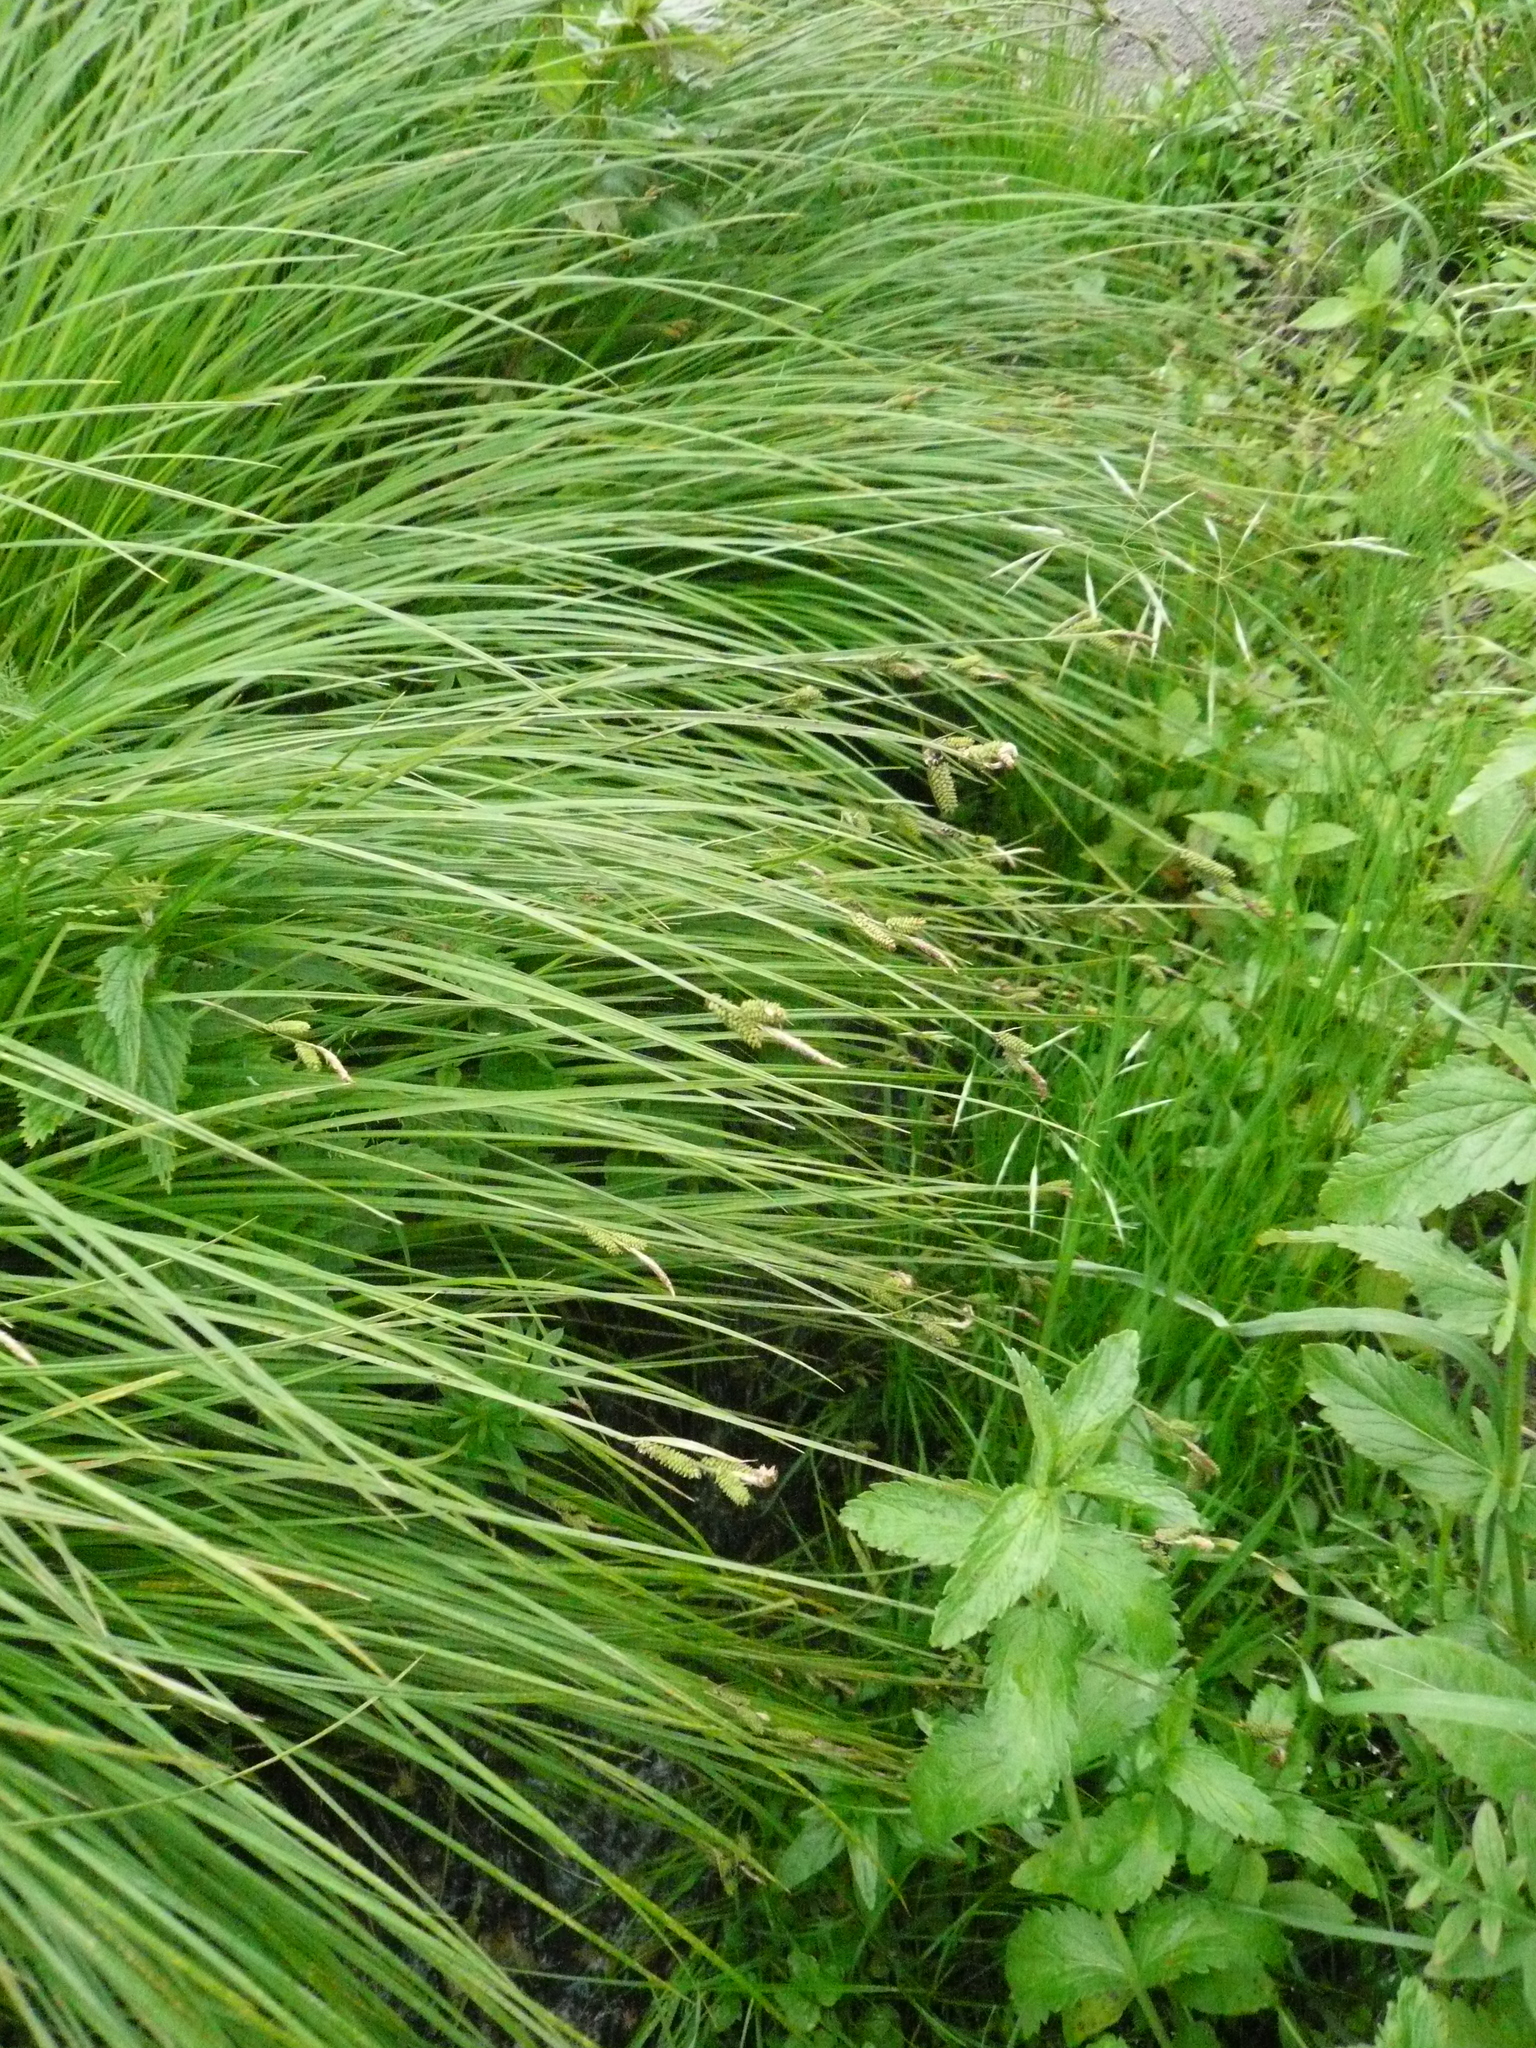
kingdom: Plantae
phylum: Tracheophyta
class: Liliopsida
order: Poales
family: Cyperaceae
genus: Carex
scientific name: Carex cespitosa
